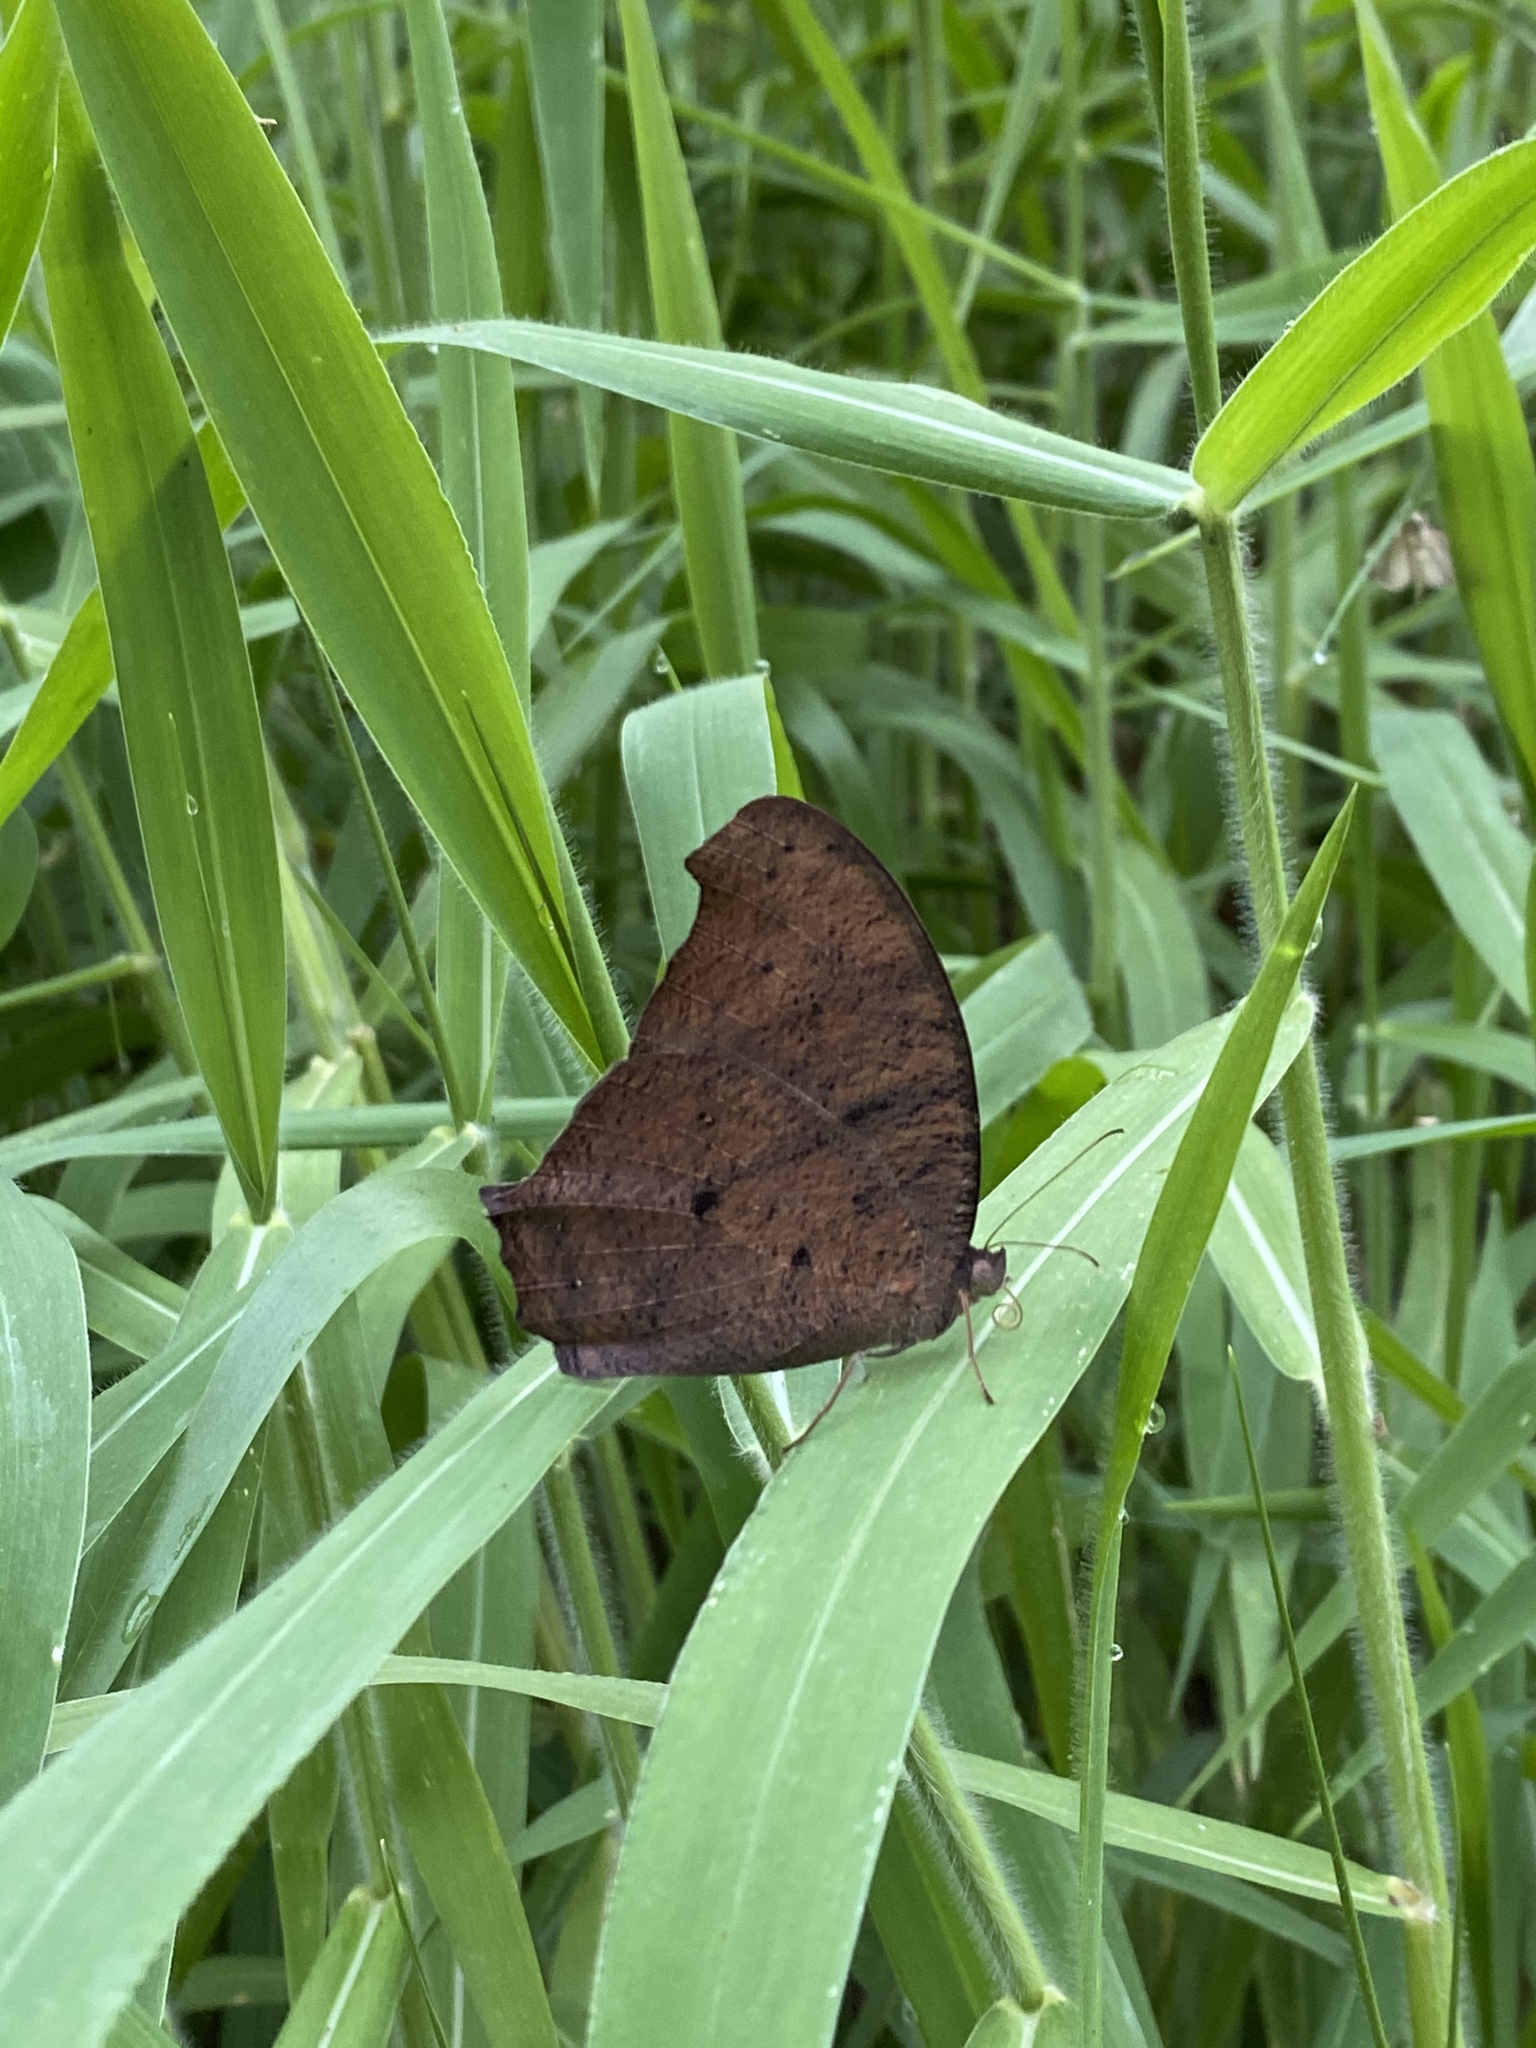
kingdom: Animalia
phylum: Arthropoda
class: Insecta
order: Lepidoptera
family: Nymphalidae
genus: Melanitis
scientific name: Melanitis leda
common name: Twilight brown
